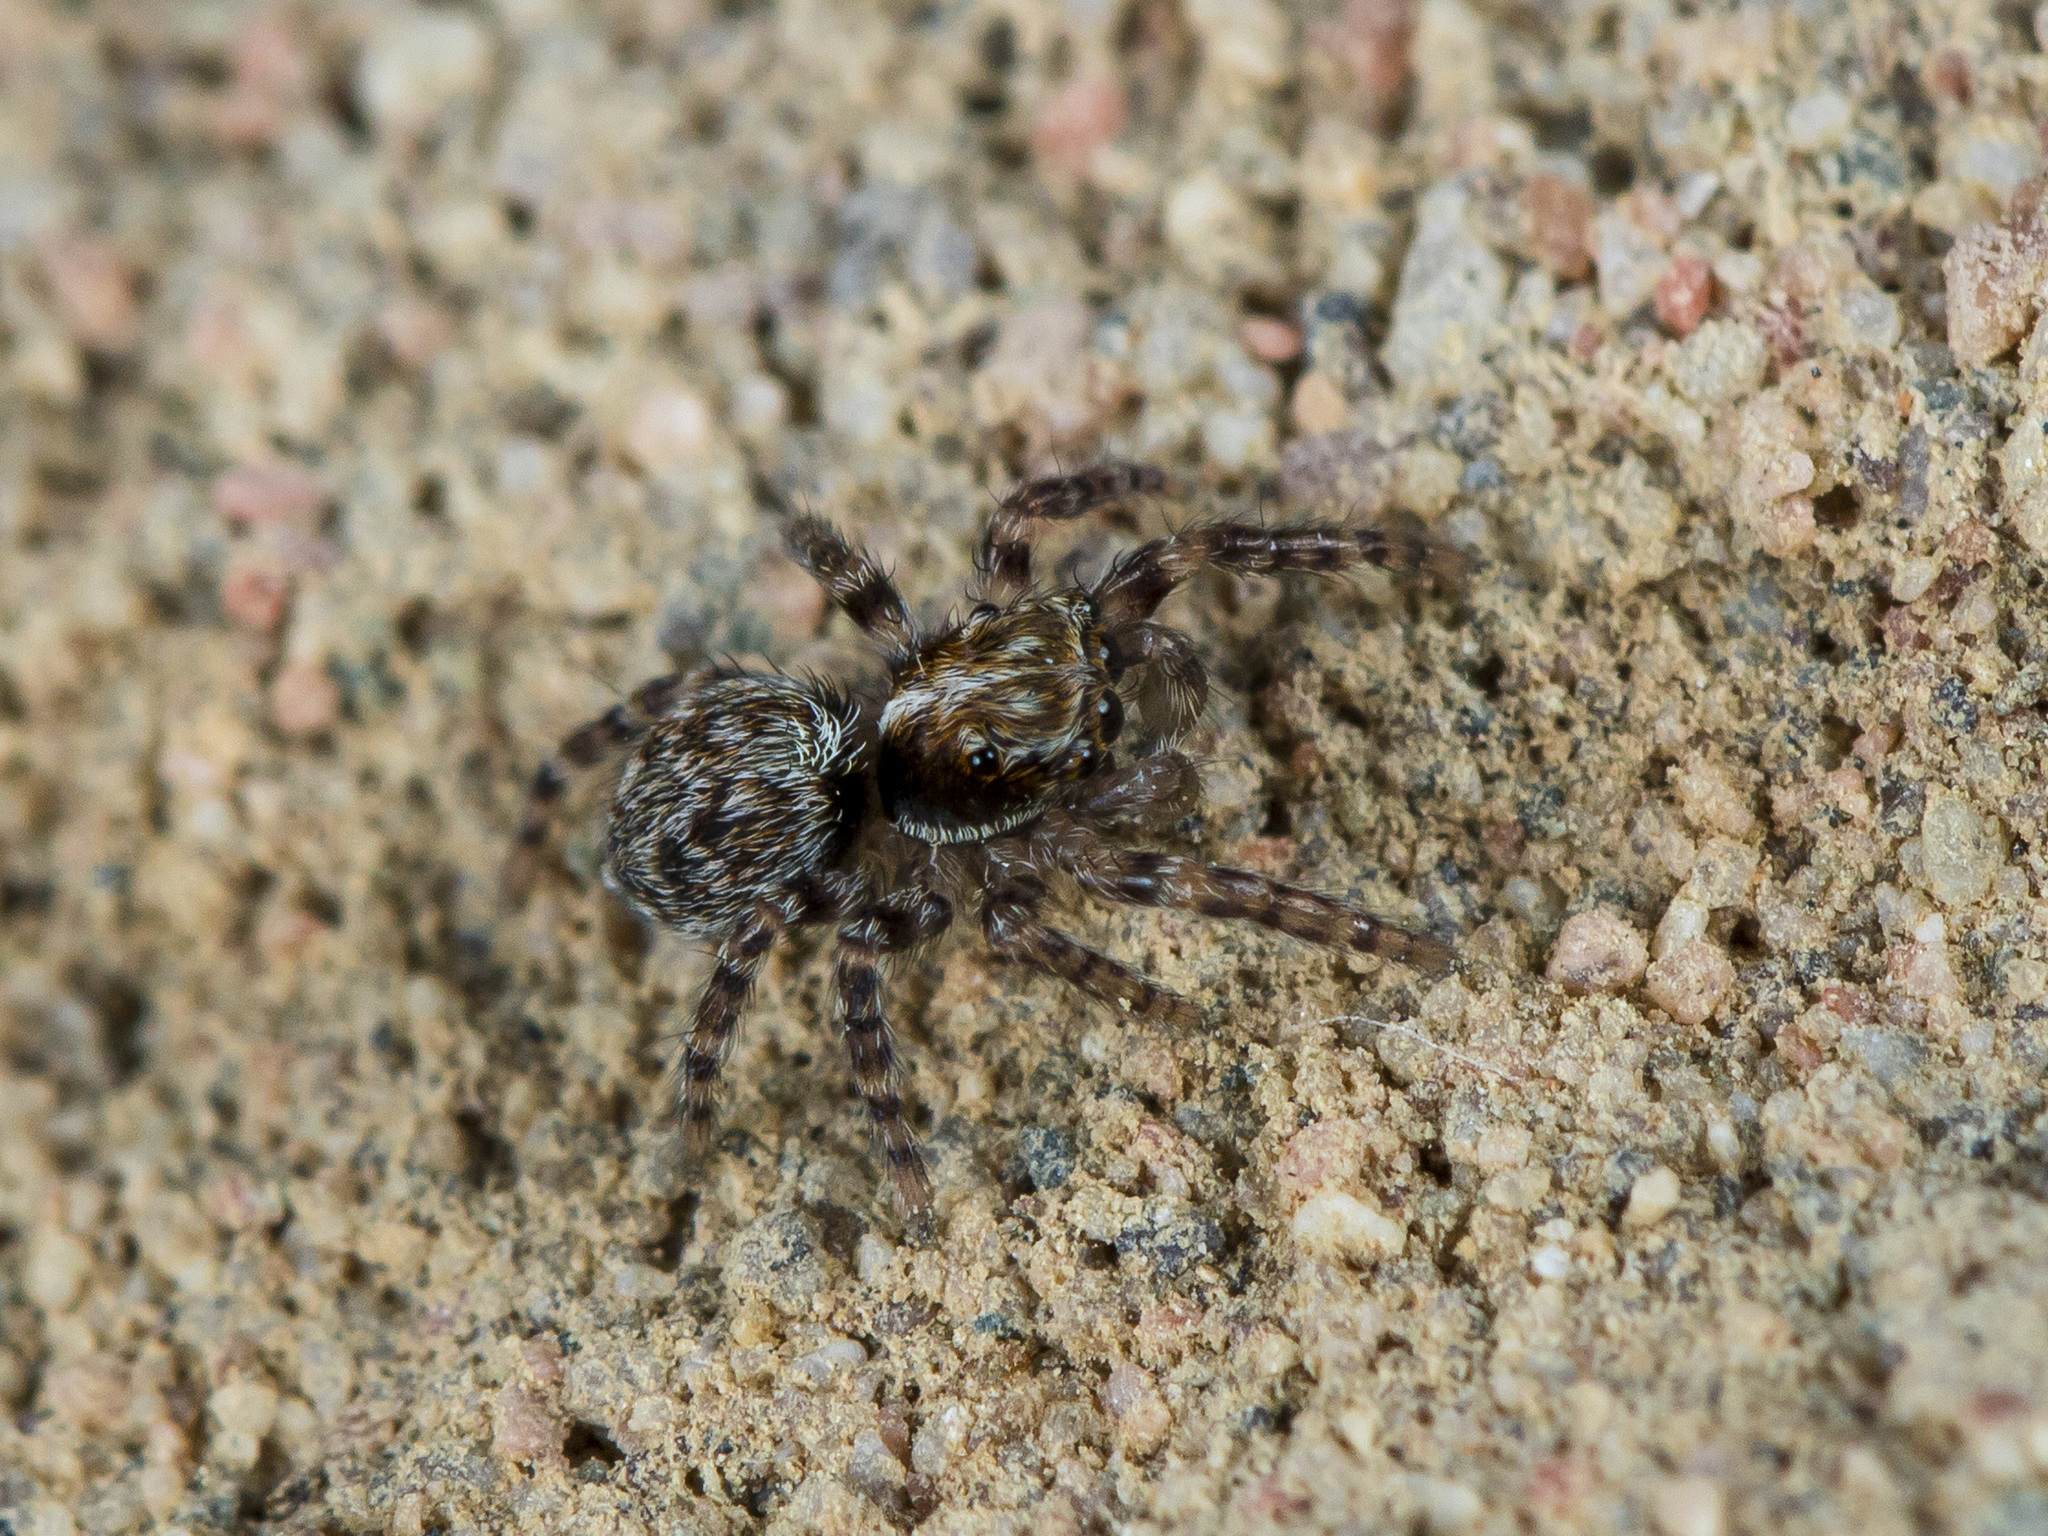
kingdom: Animalia
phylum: Arthropoda
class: Arachnida
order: Araneae
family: Salticidae
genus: Pseudeuophrys
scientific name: Pseudeuophrys obsoleta
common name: Whelk-shell jumper
